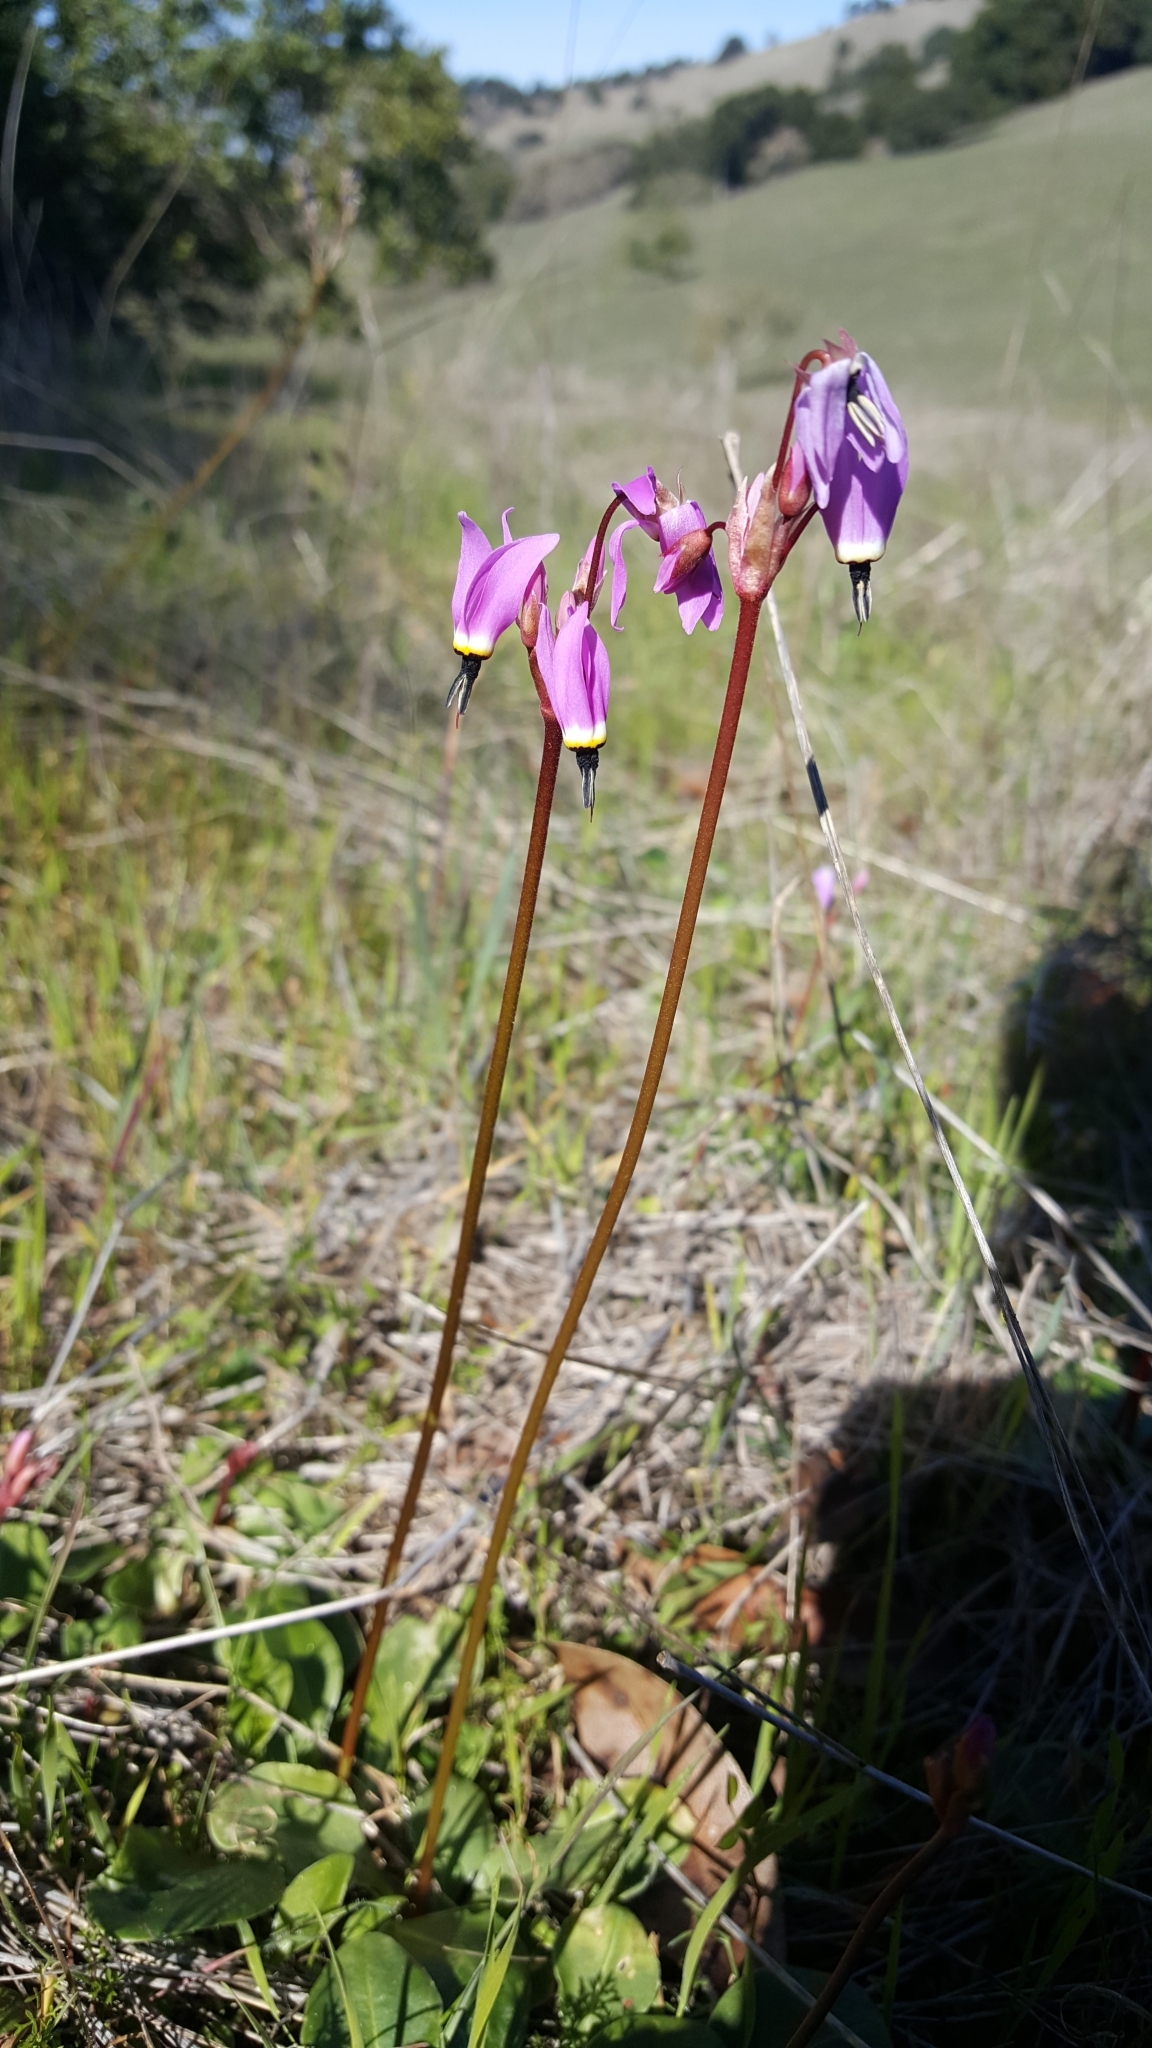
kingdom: Plantae
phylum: Tracheophyta
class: Magnoliopsida
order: Ericales
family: Primulaceae
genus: Dodecatheon
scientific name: Dodecatheon hendersonii
